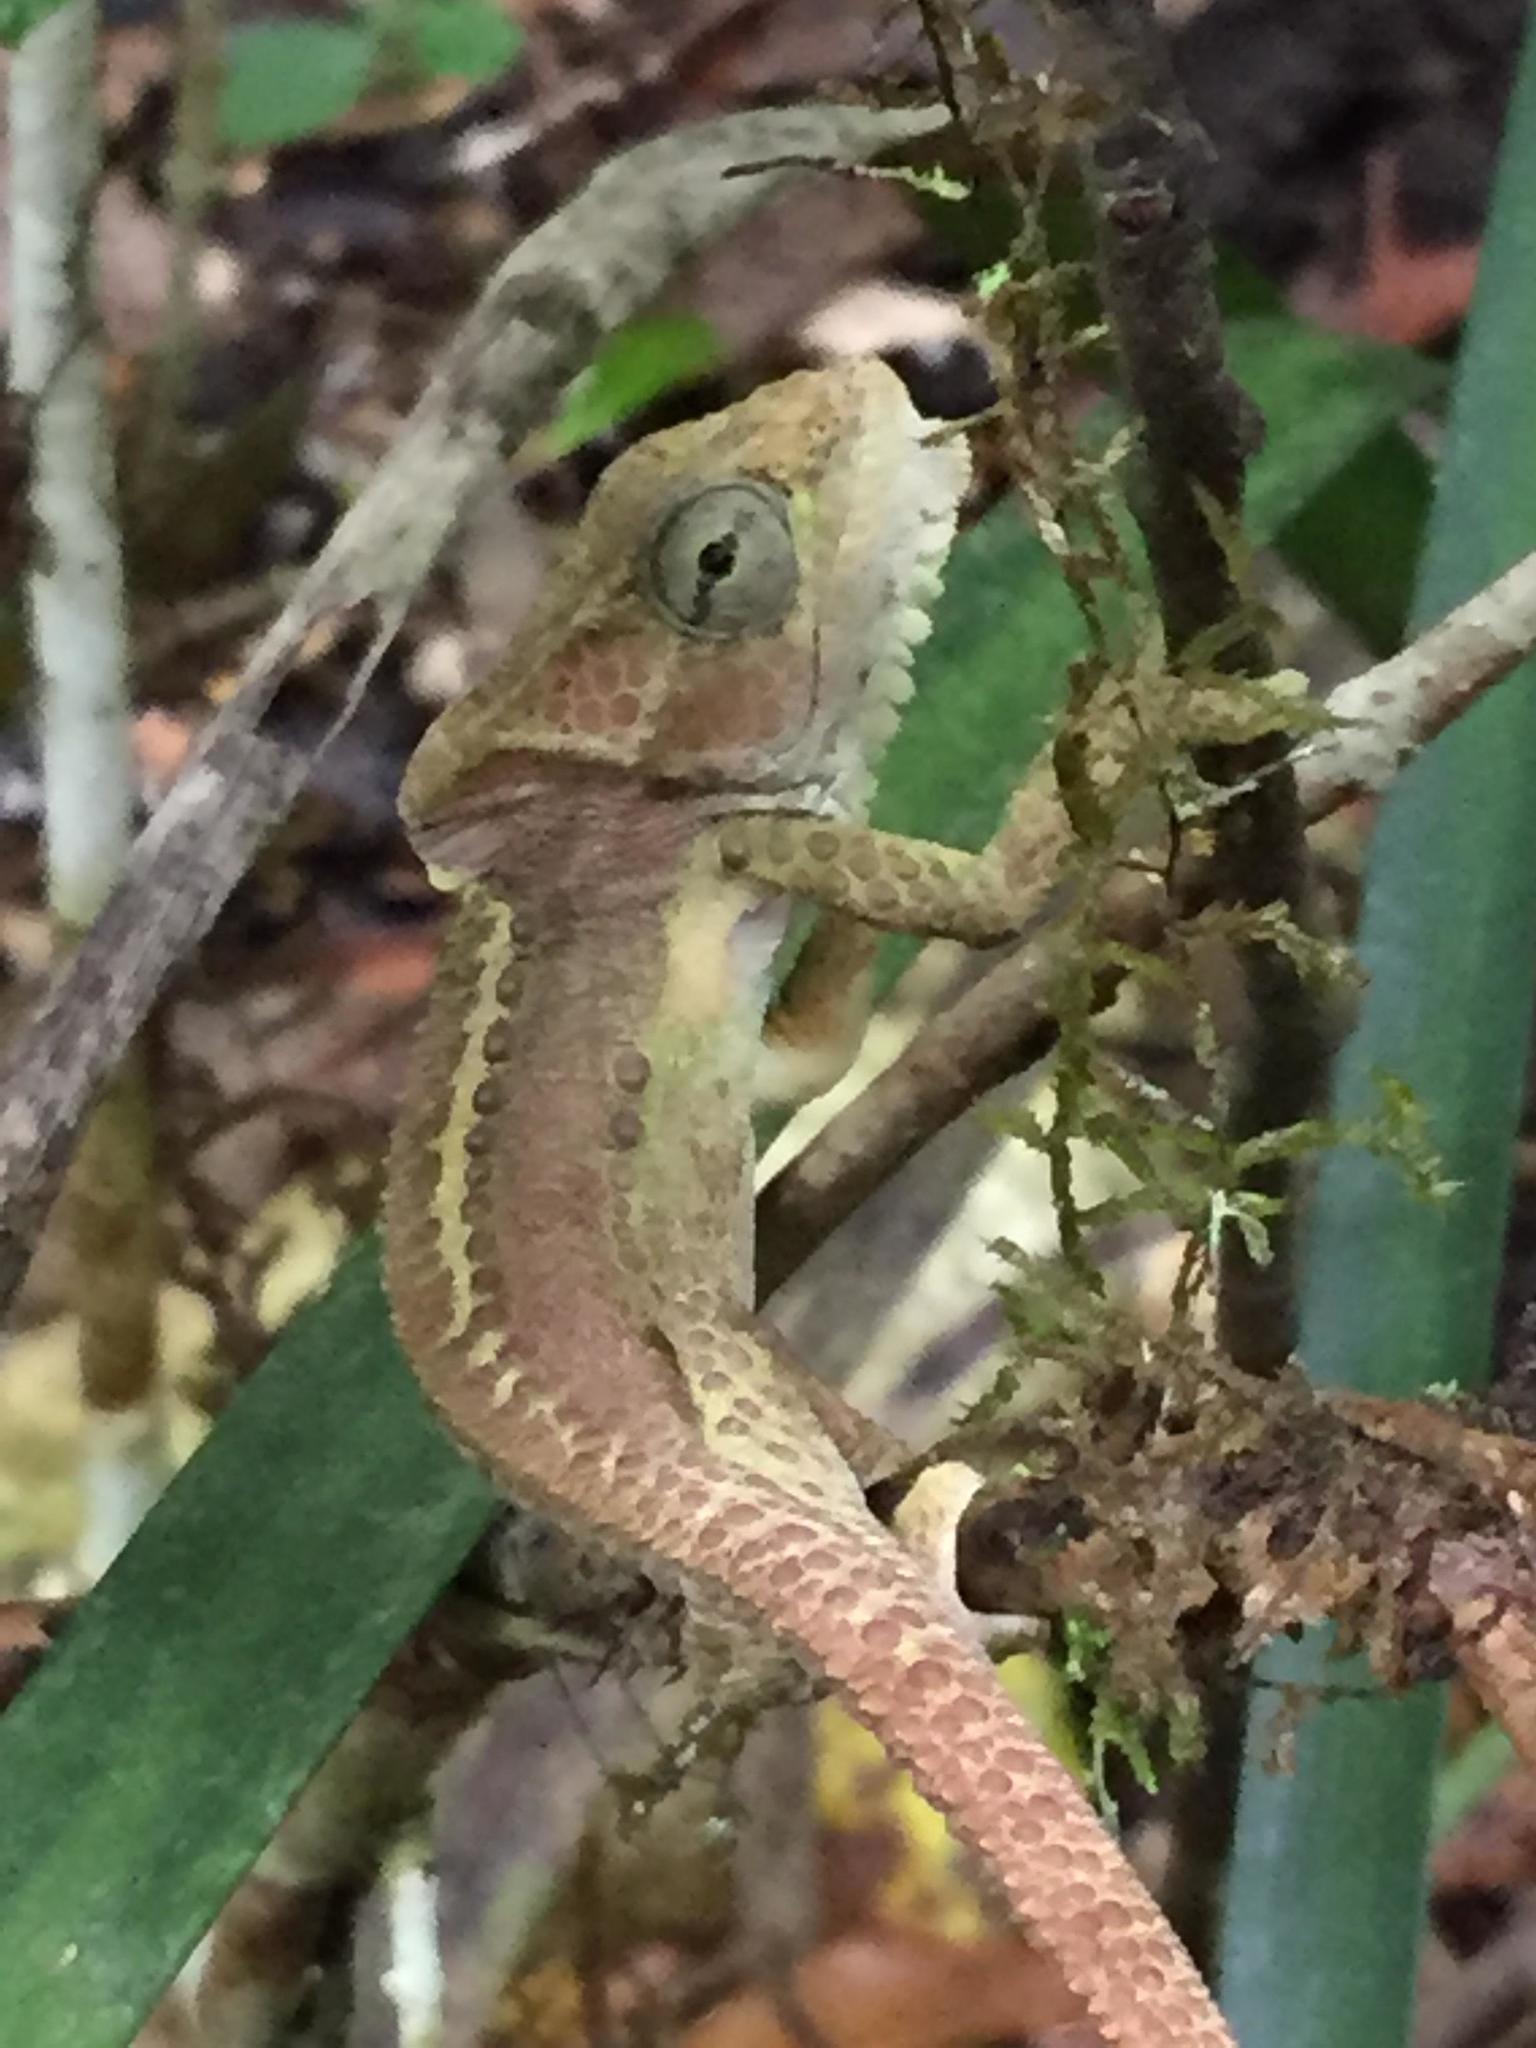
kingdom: Animalia
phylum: Chordata
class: Squamata
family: Chamaeleonidae
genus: Bradypodion
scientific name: Bradypodion damaranum
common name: Knysna dwarf chameleon
